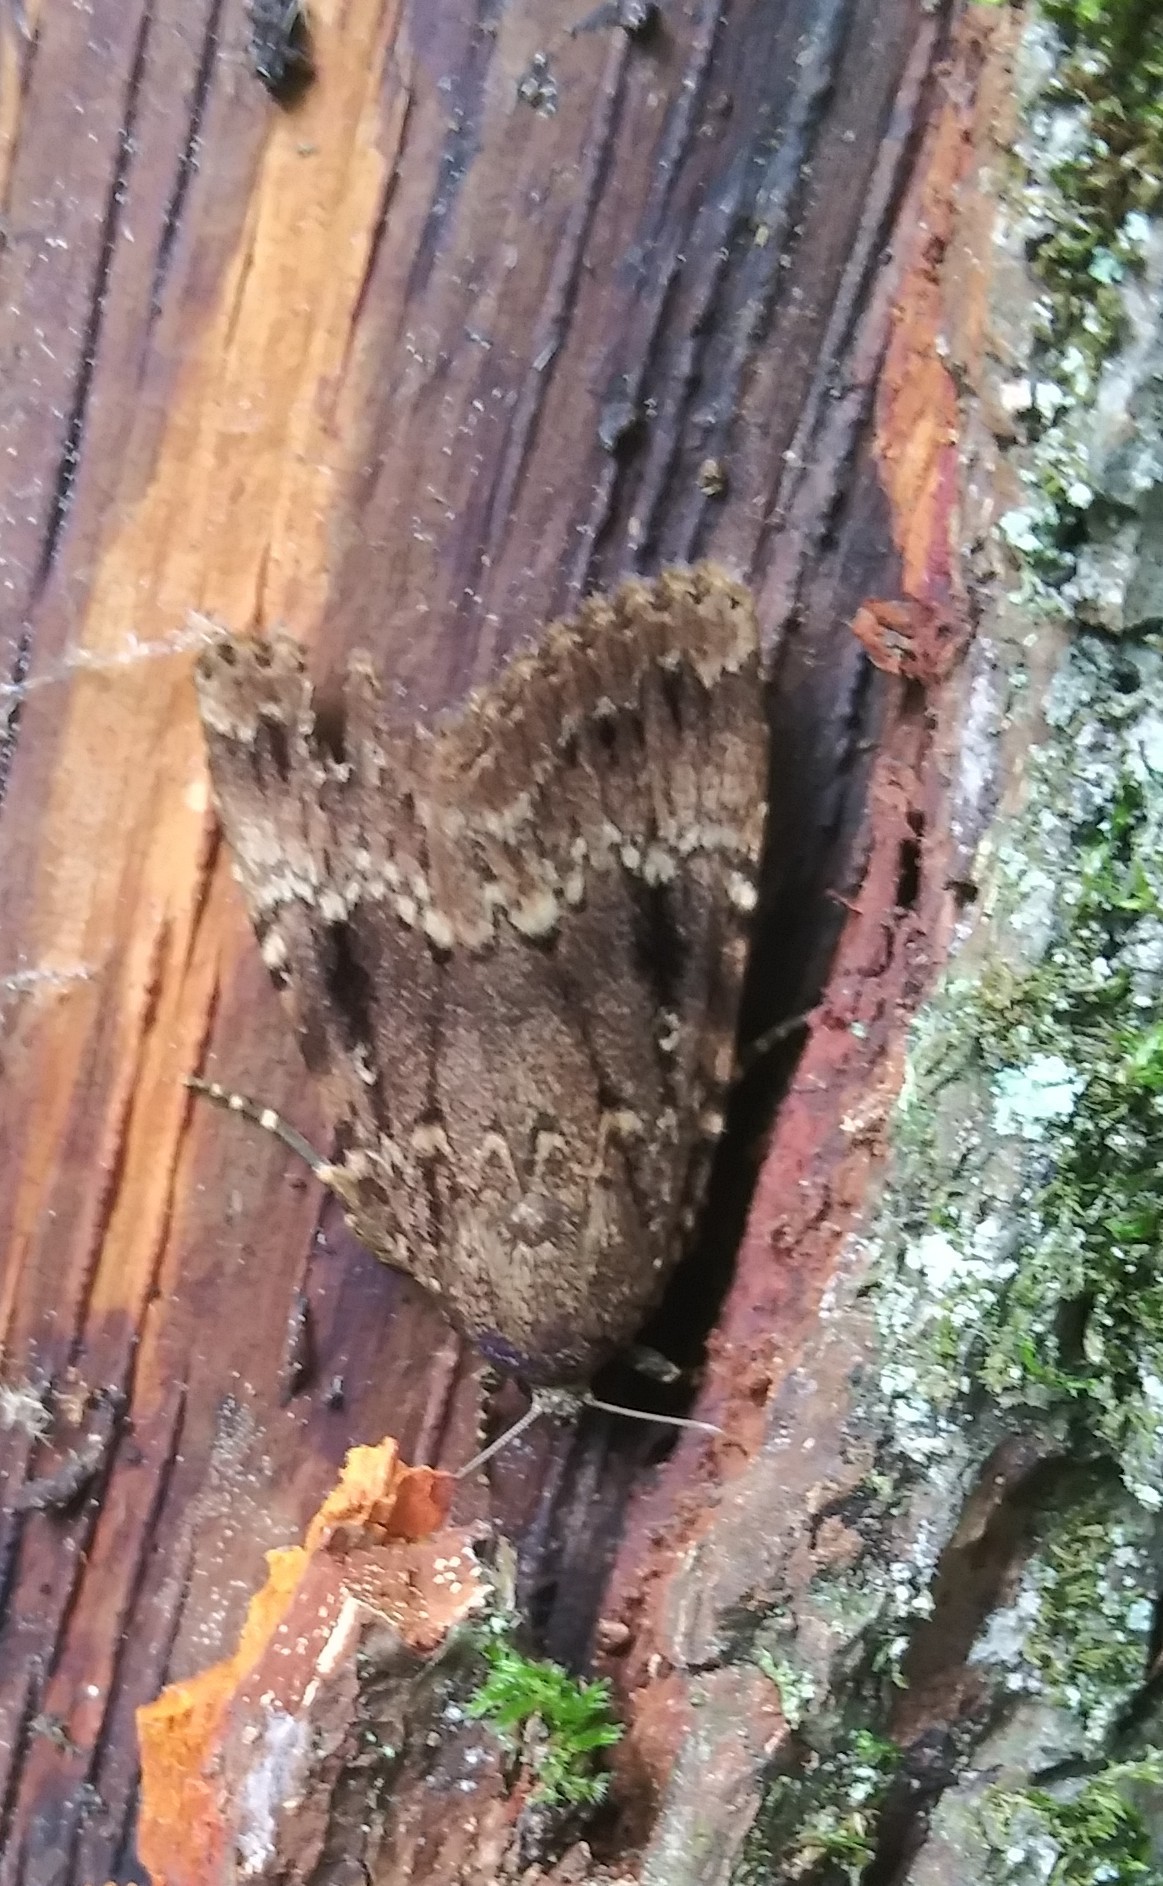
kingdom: Animalia
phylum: Arthropoda
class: Insecta
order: Lepidoptera
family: Noctuidae
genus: Amphipyra
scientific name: Amphipyra pyramidea
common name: Copper underwing
